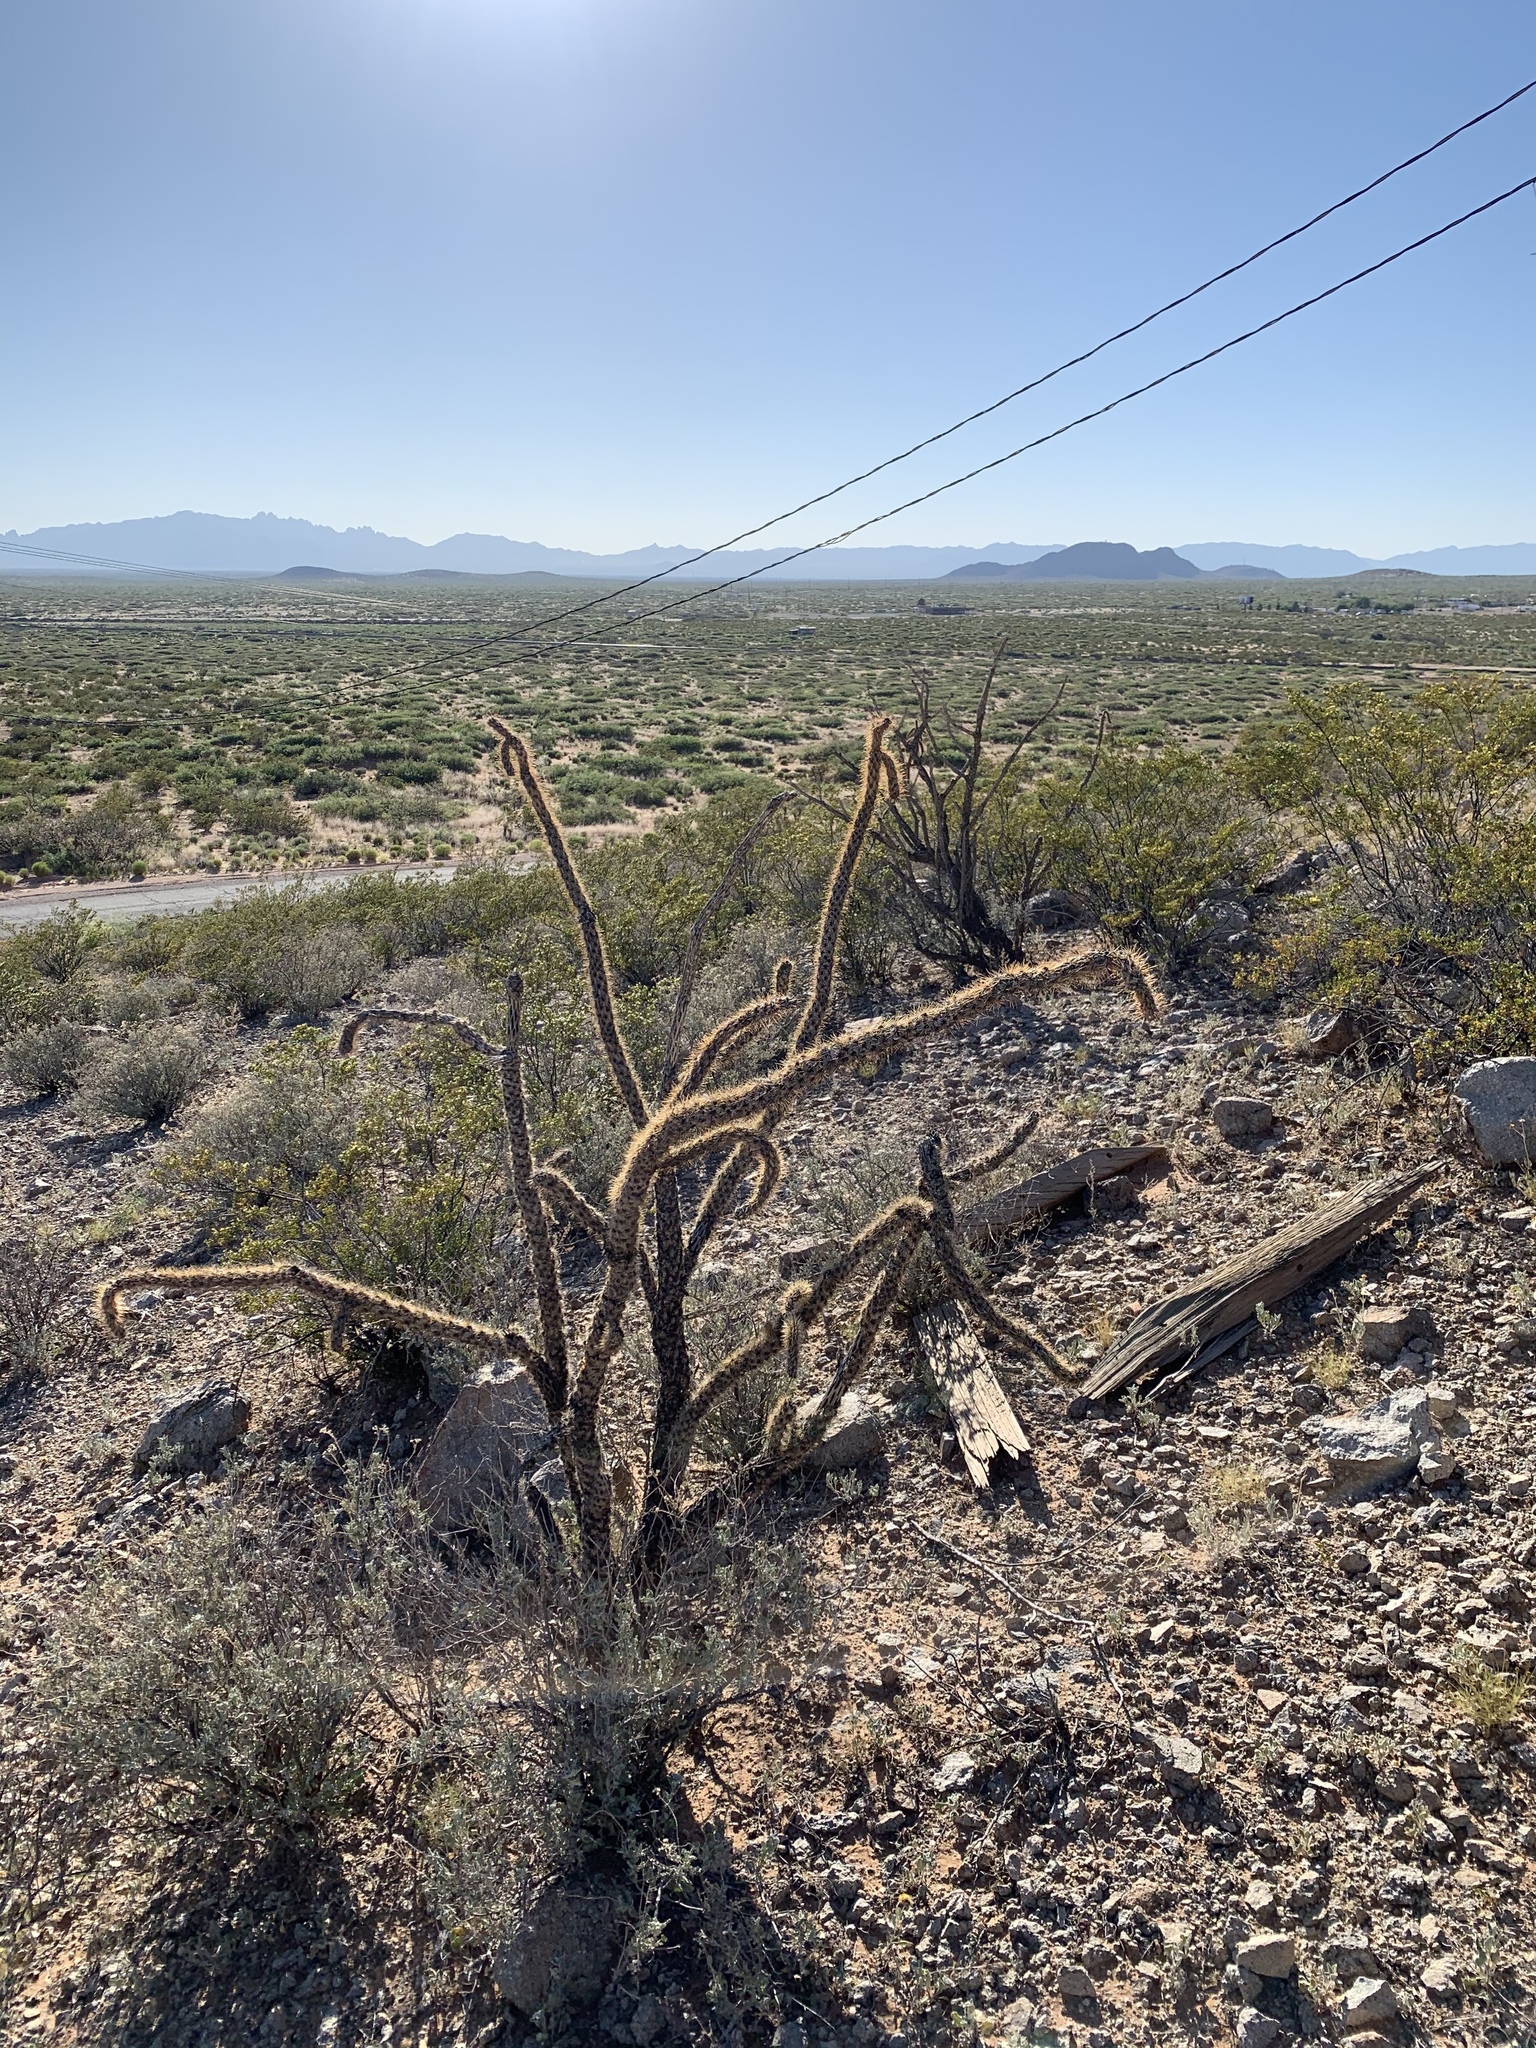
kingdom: Plantae
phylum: Tracheophyta
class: Magnoliopsida
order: Caryophyllales
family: Cactaceae
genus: Cylindropuntia
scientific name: Cylindropuntia imbricata
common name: Candelabrum cactus
